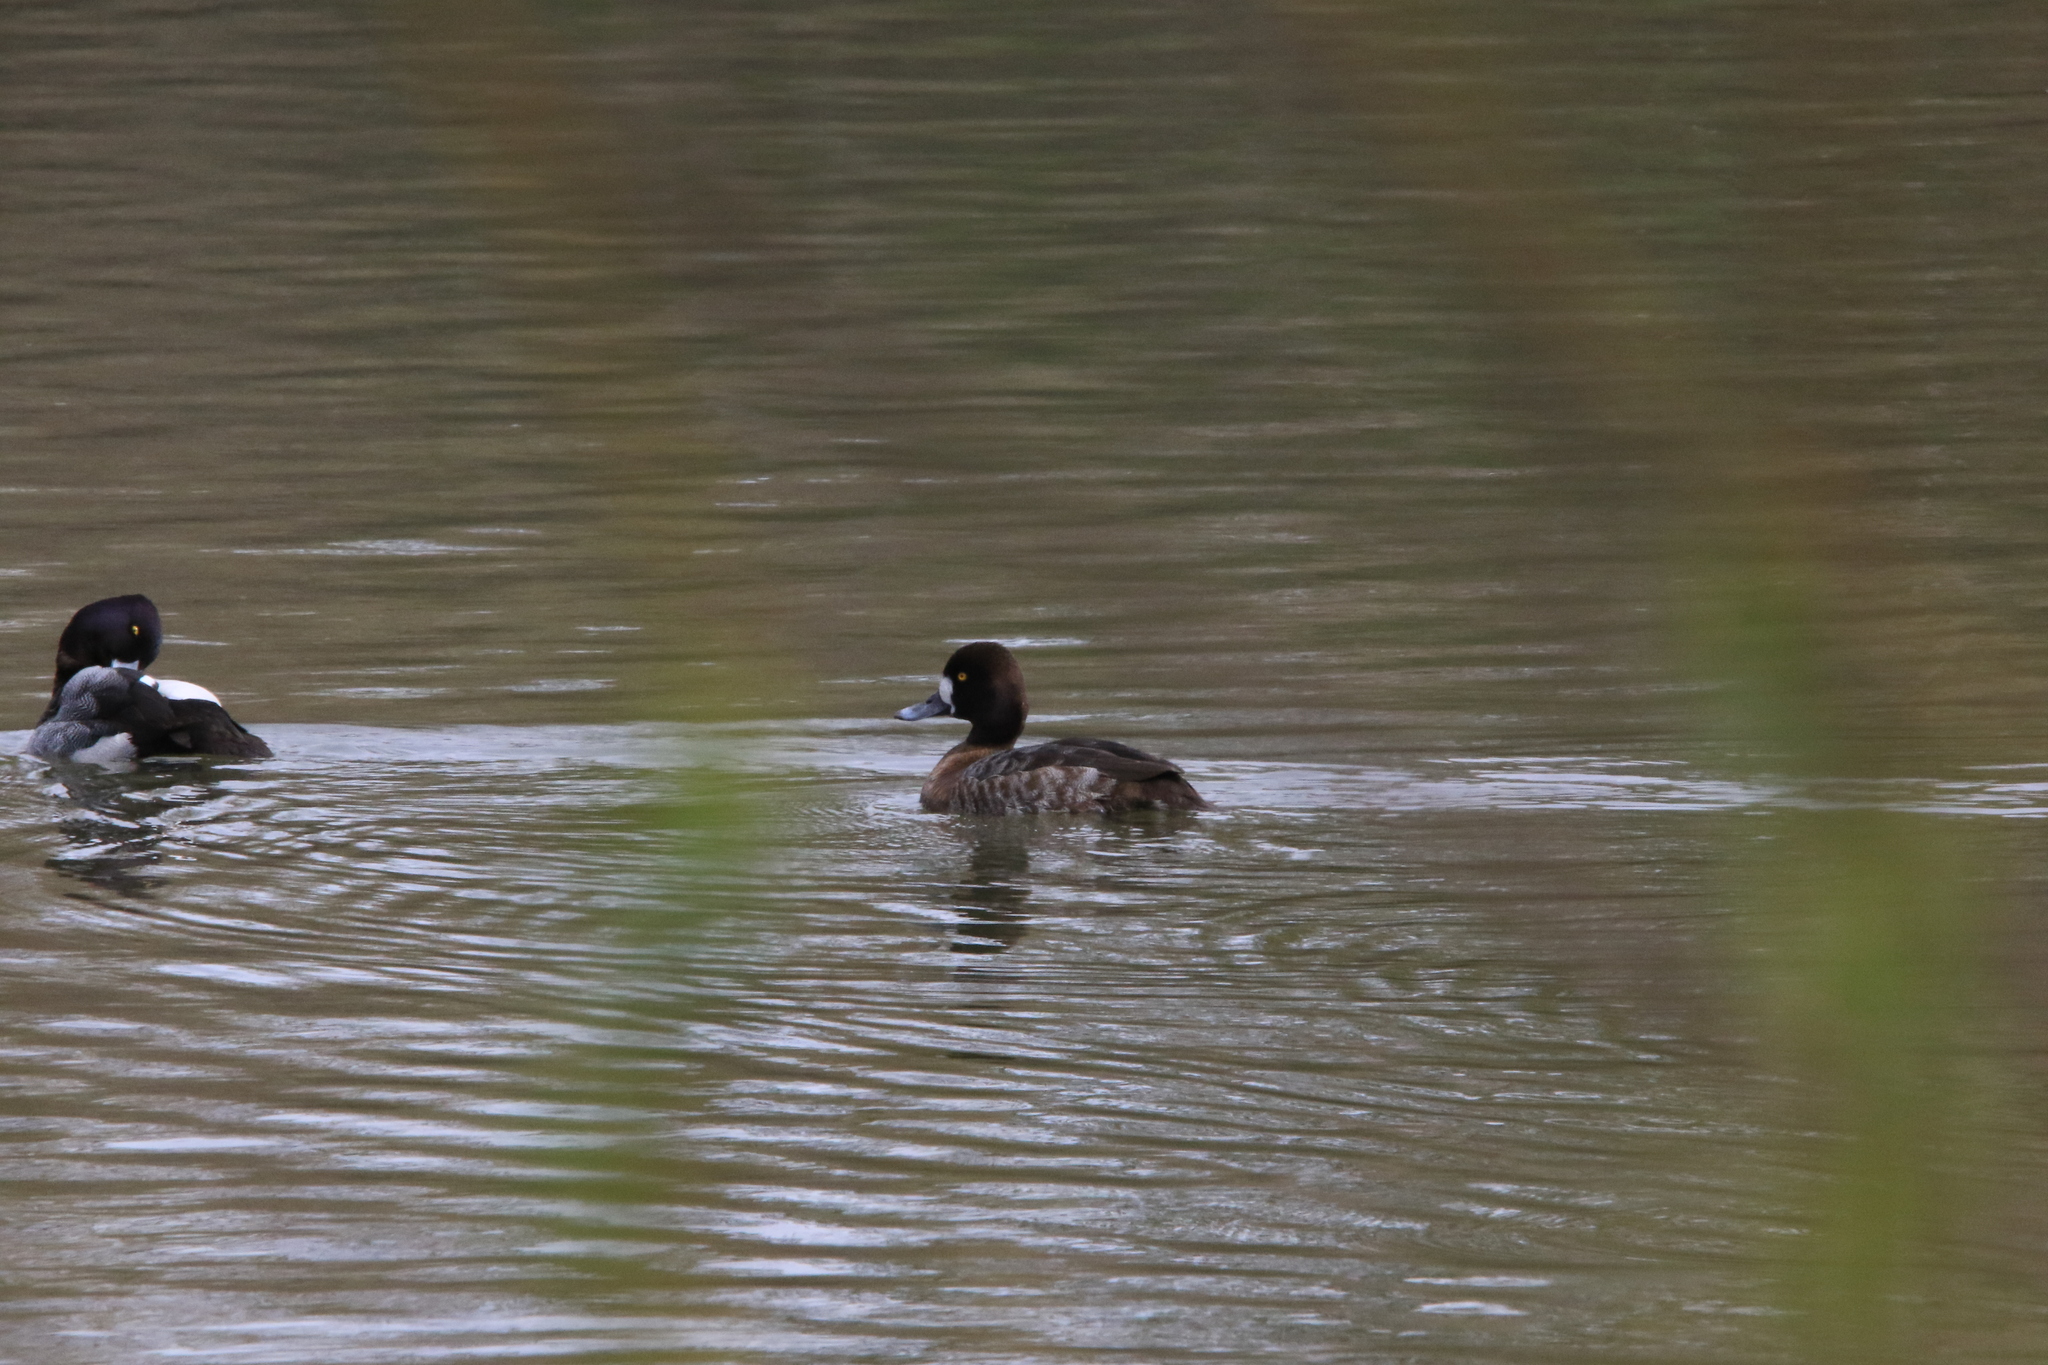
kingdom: Animalia
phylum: Chordata
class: Aves
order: Anseriformes
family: Anatidae
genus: Aythya
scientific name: Aythya affinis
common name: Lesser scaup
